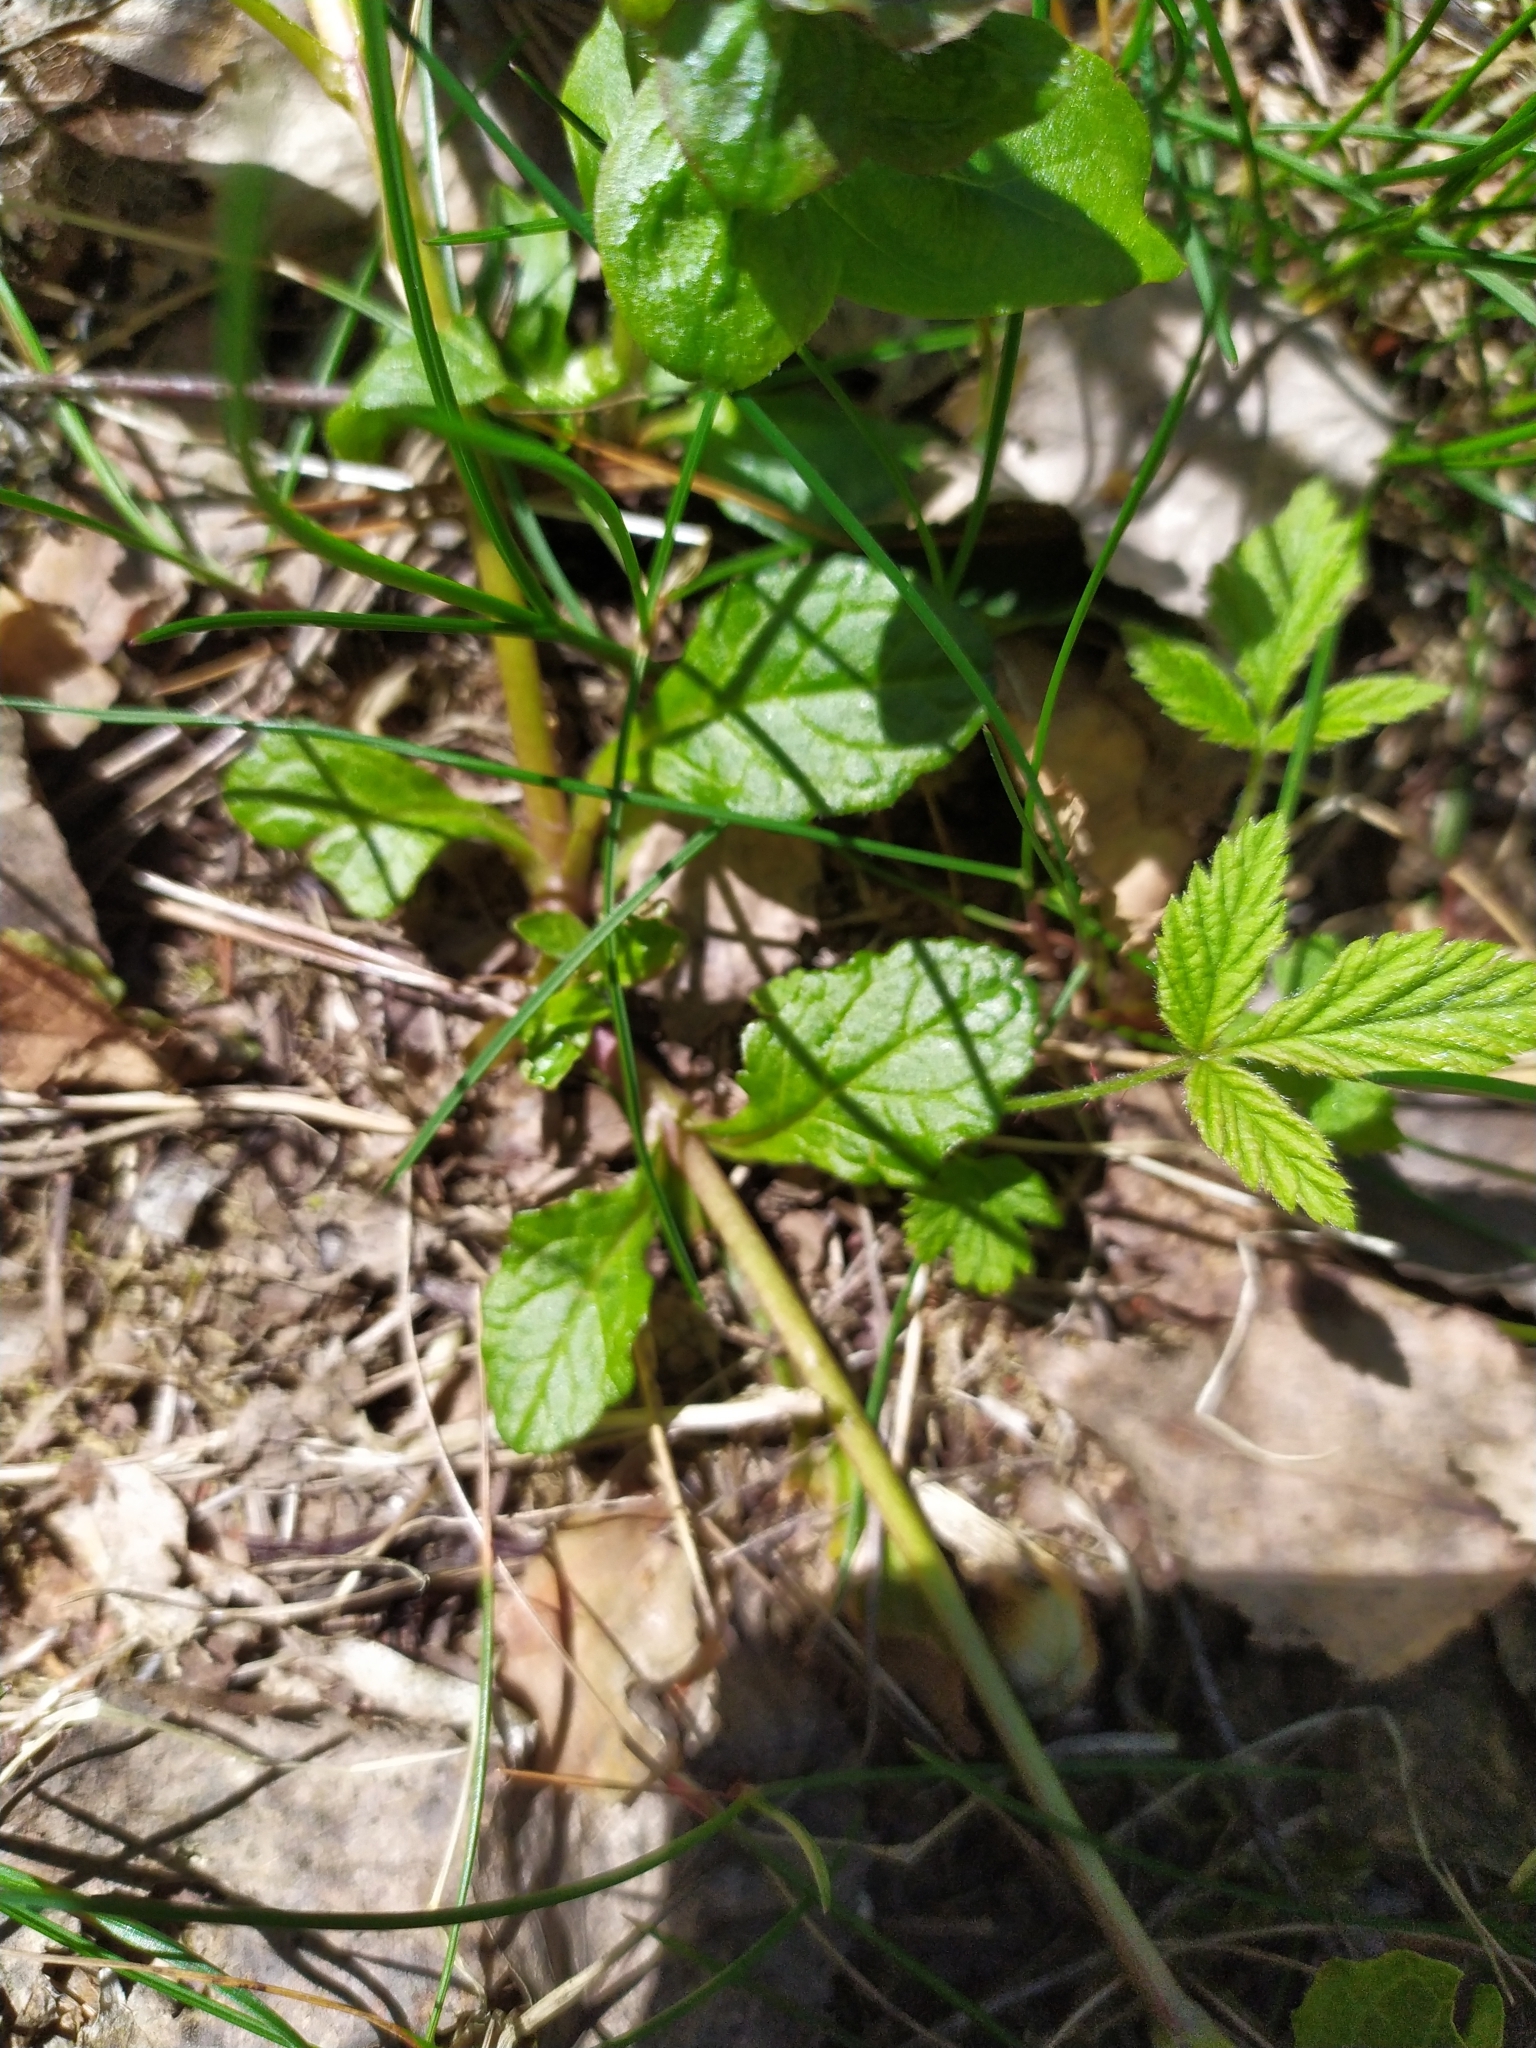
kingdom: Plantae
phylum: Tracheophyta
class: Magnoliopsida
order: Lamiales
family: Plantaginaceae
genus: Veronica
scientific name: Veronica officinalis
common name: Common speedwell
